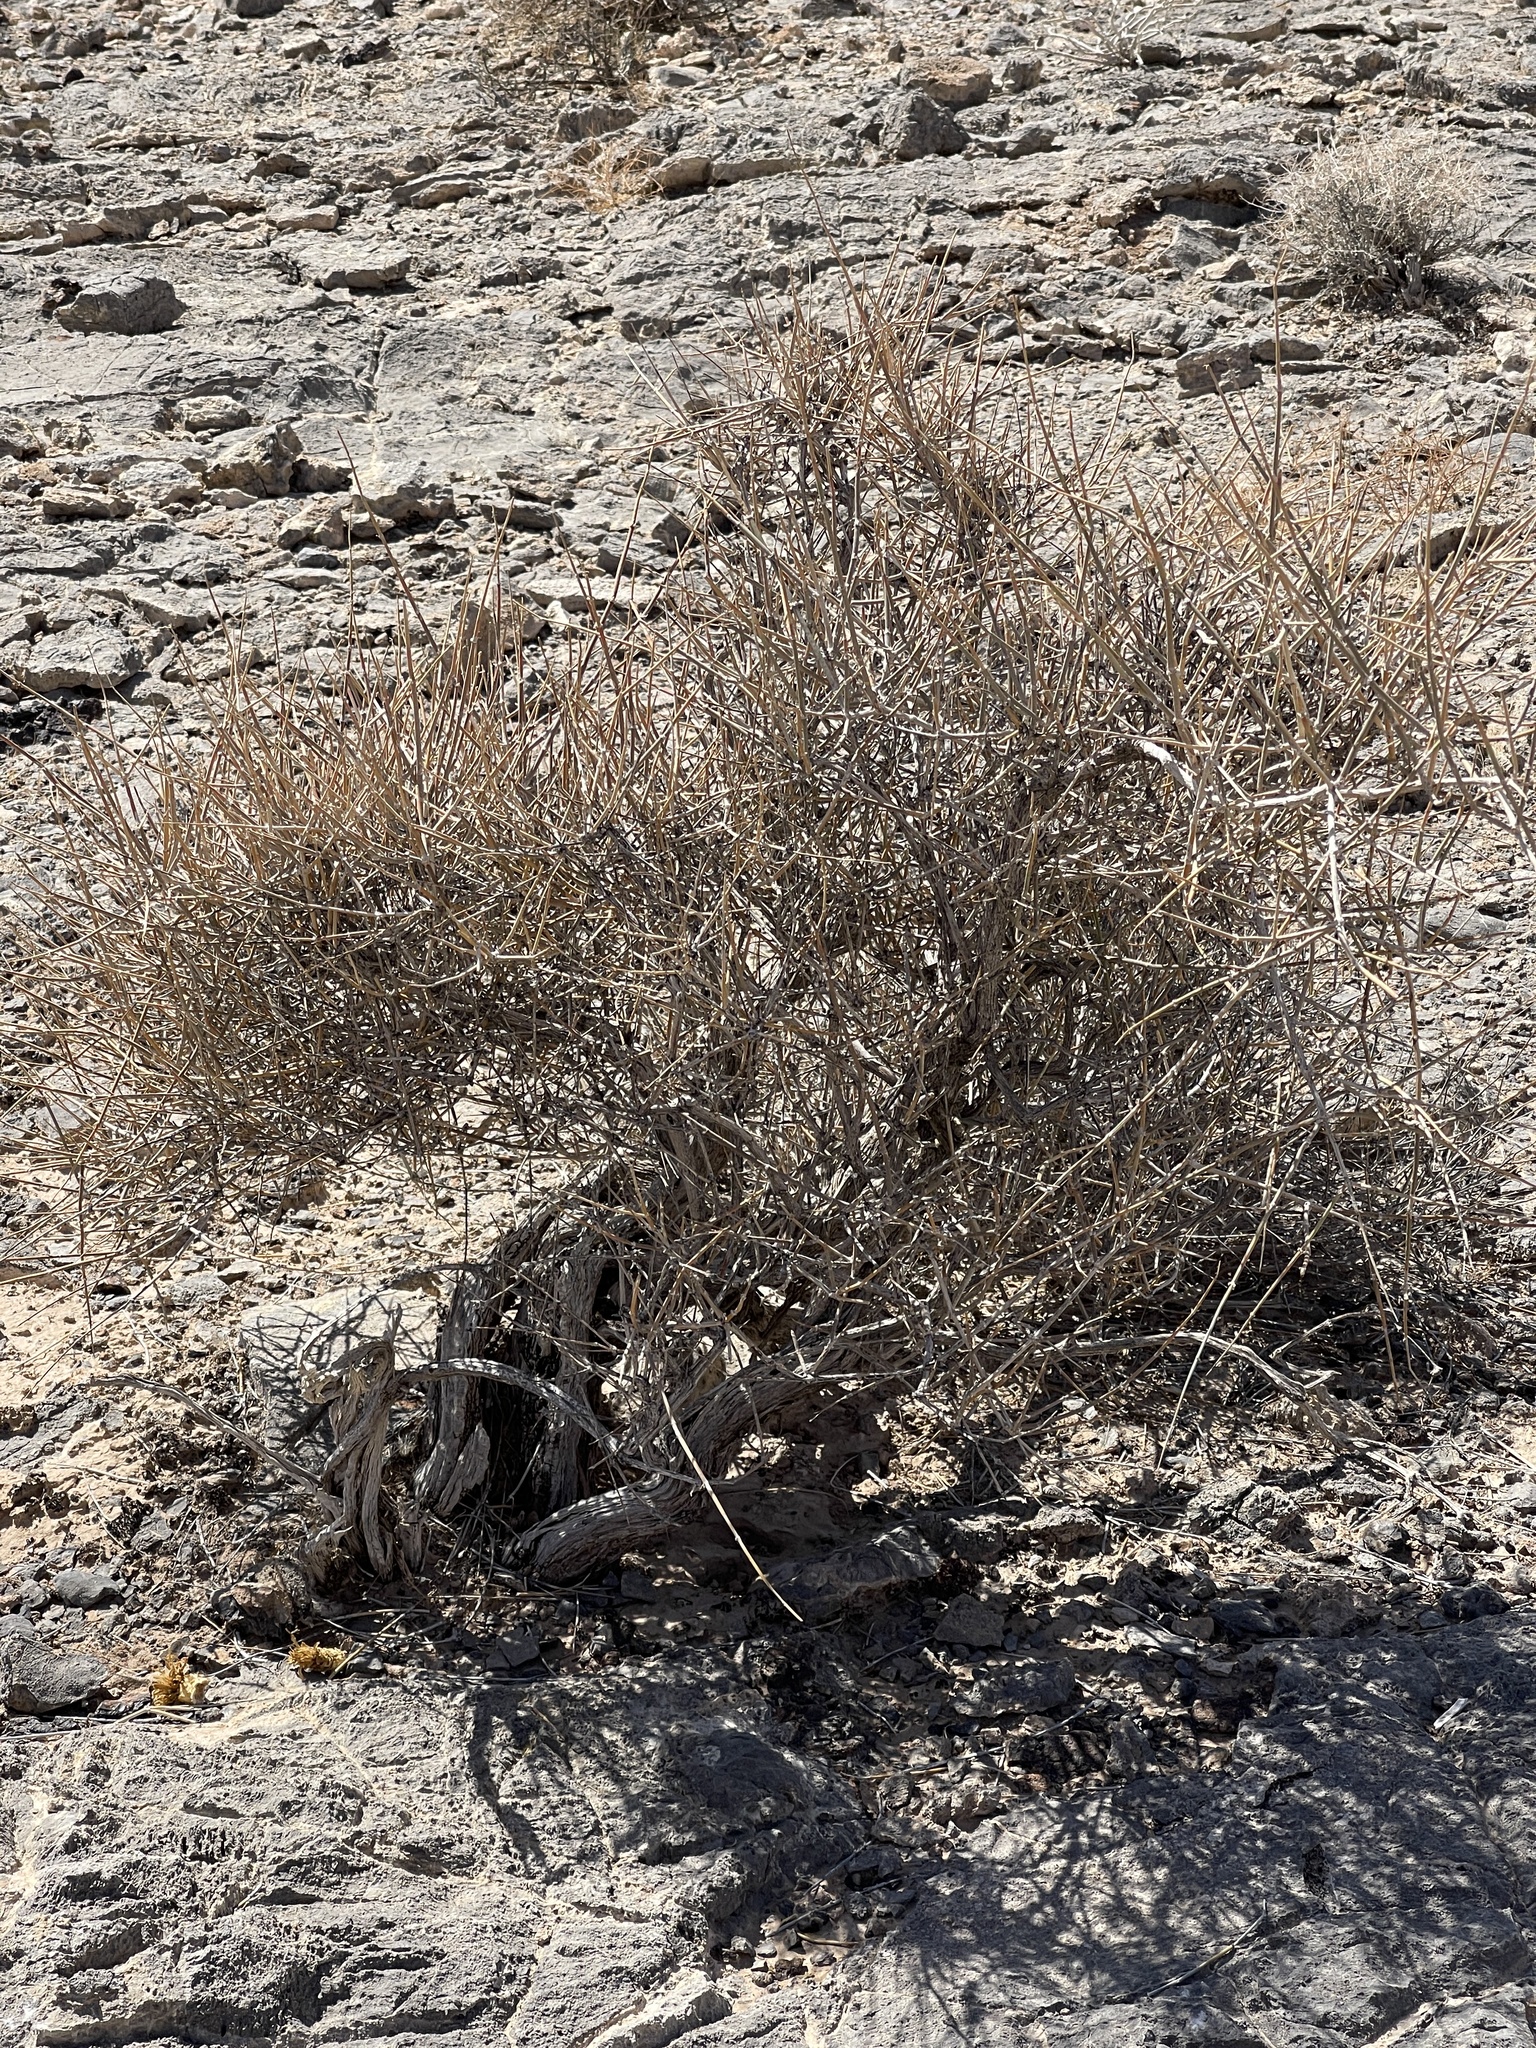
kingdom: Plantae
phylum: Tracheophyta
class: Gnetopsida
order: Ephedrales
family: Ephedraceae
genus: Ephedra
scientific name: Ephedra nevadensis
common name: Gray ephedra
